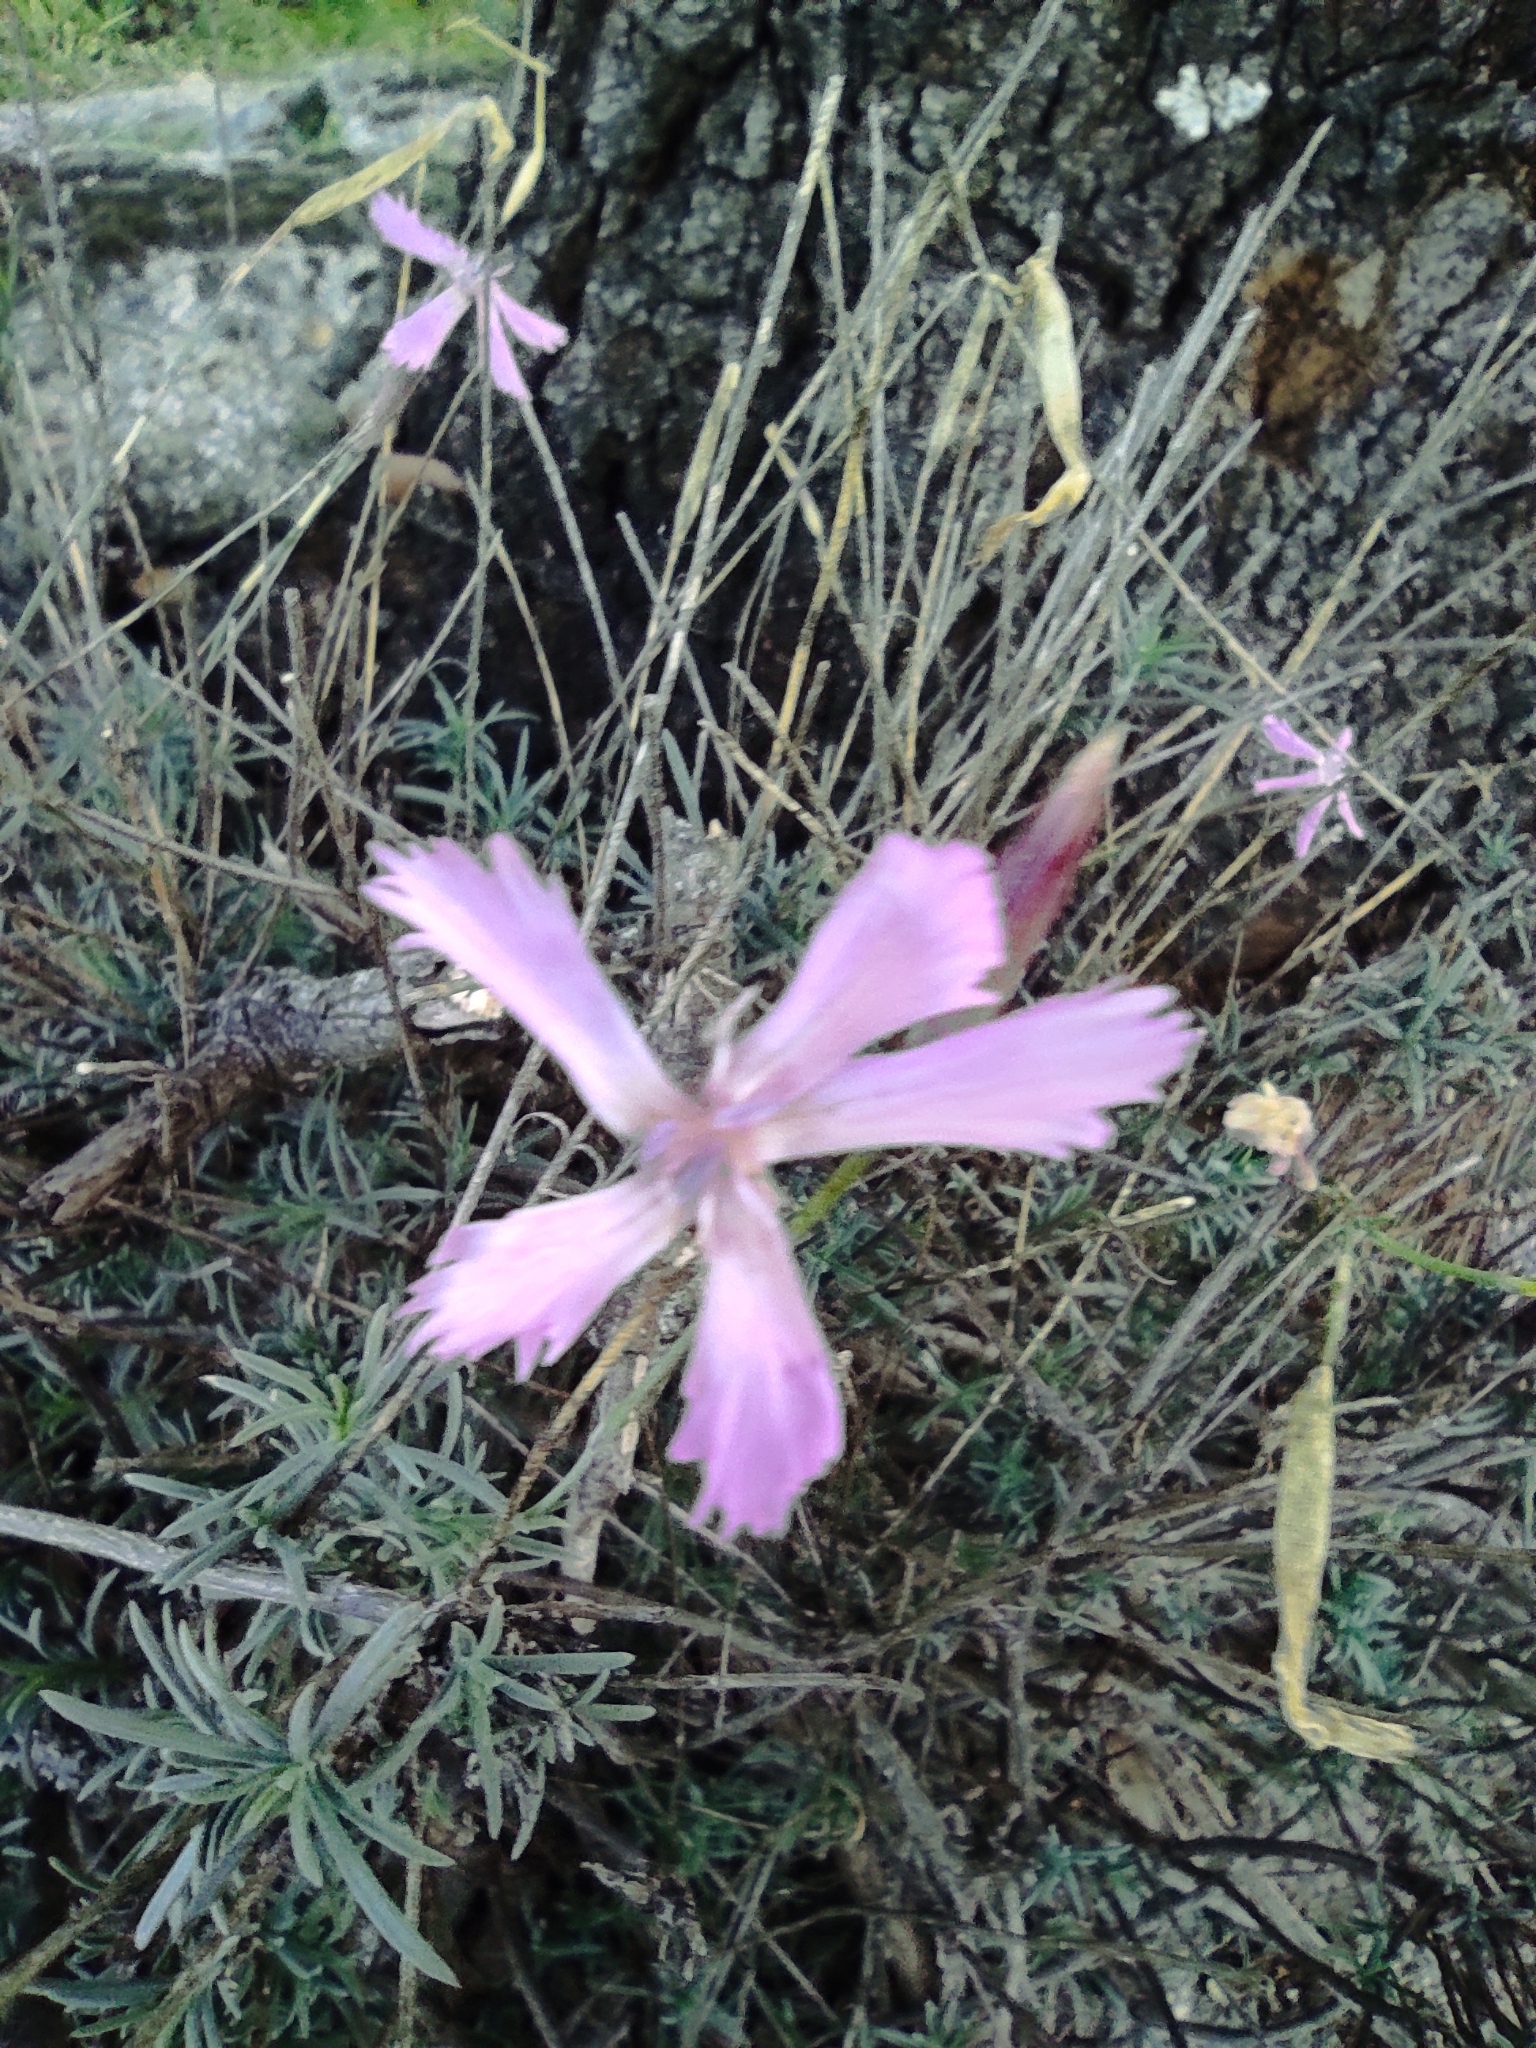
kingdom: Plantae
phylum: Tracheophyta
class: Magnoliopsida
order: Caryophyllales
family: Caryophyllaceae
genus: Dianthus
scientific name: Dianthus lusitanus
